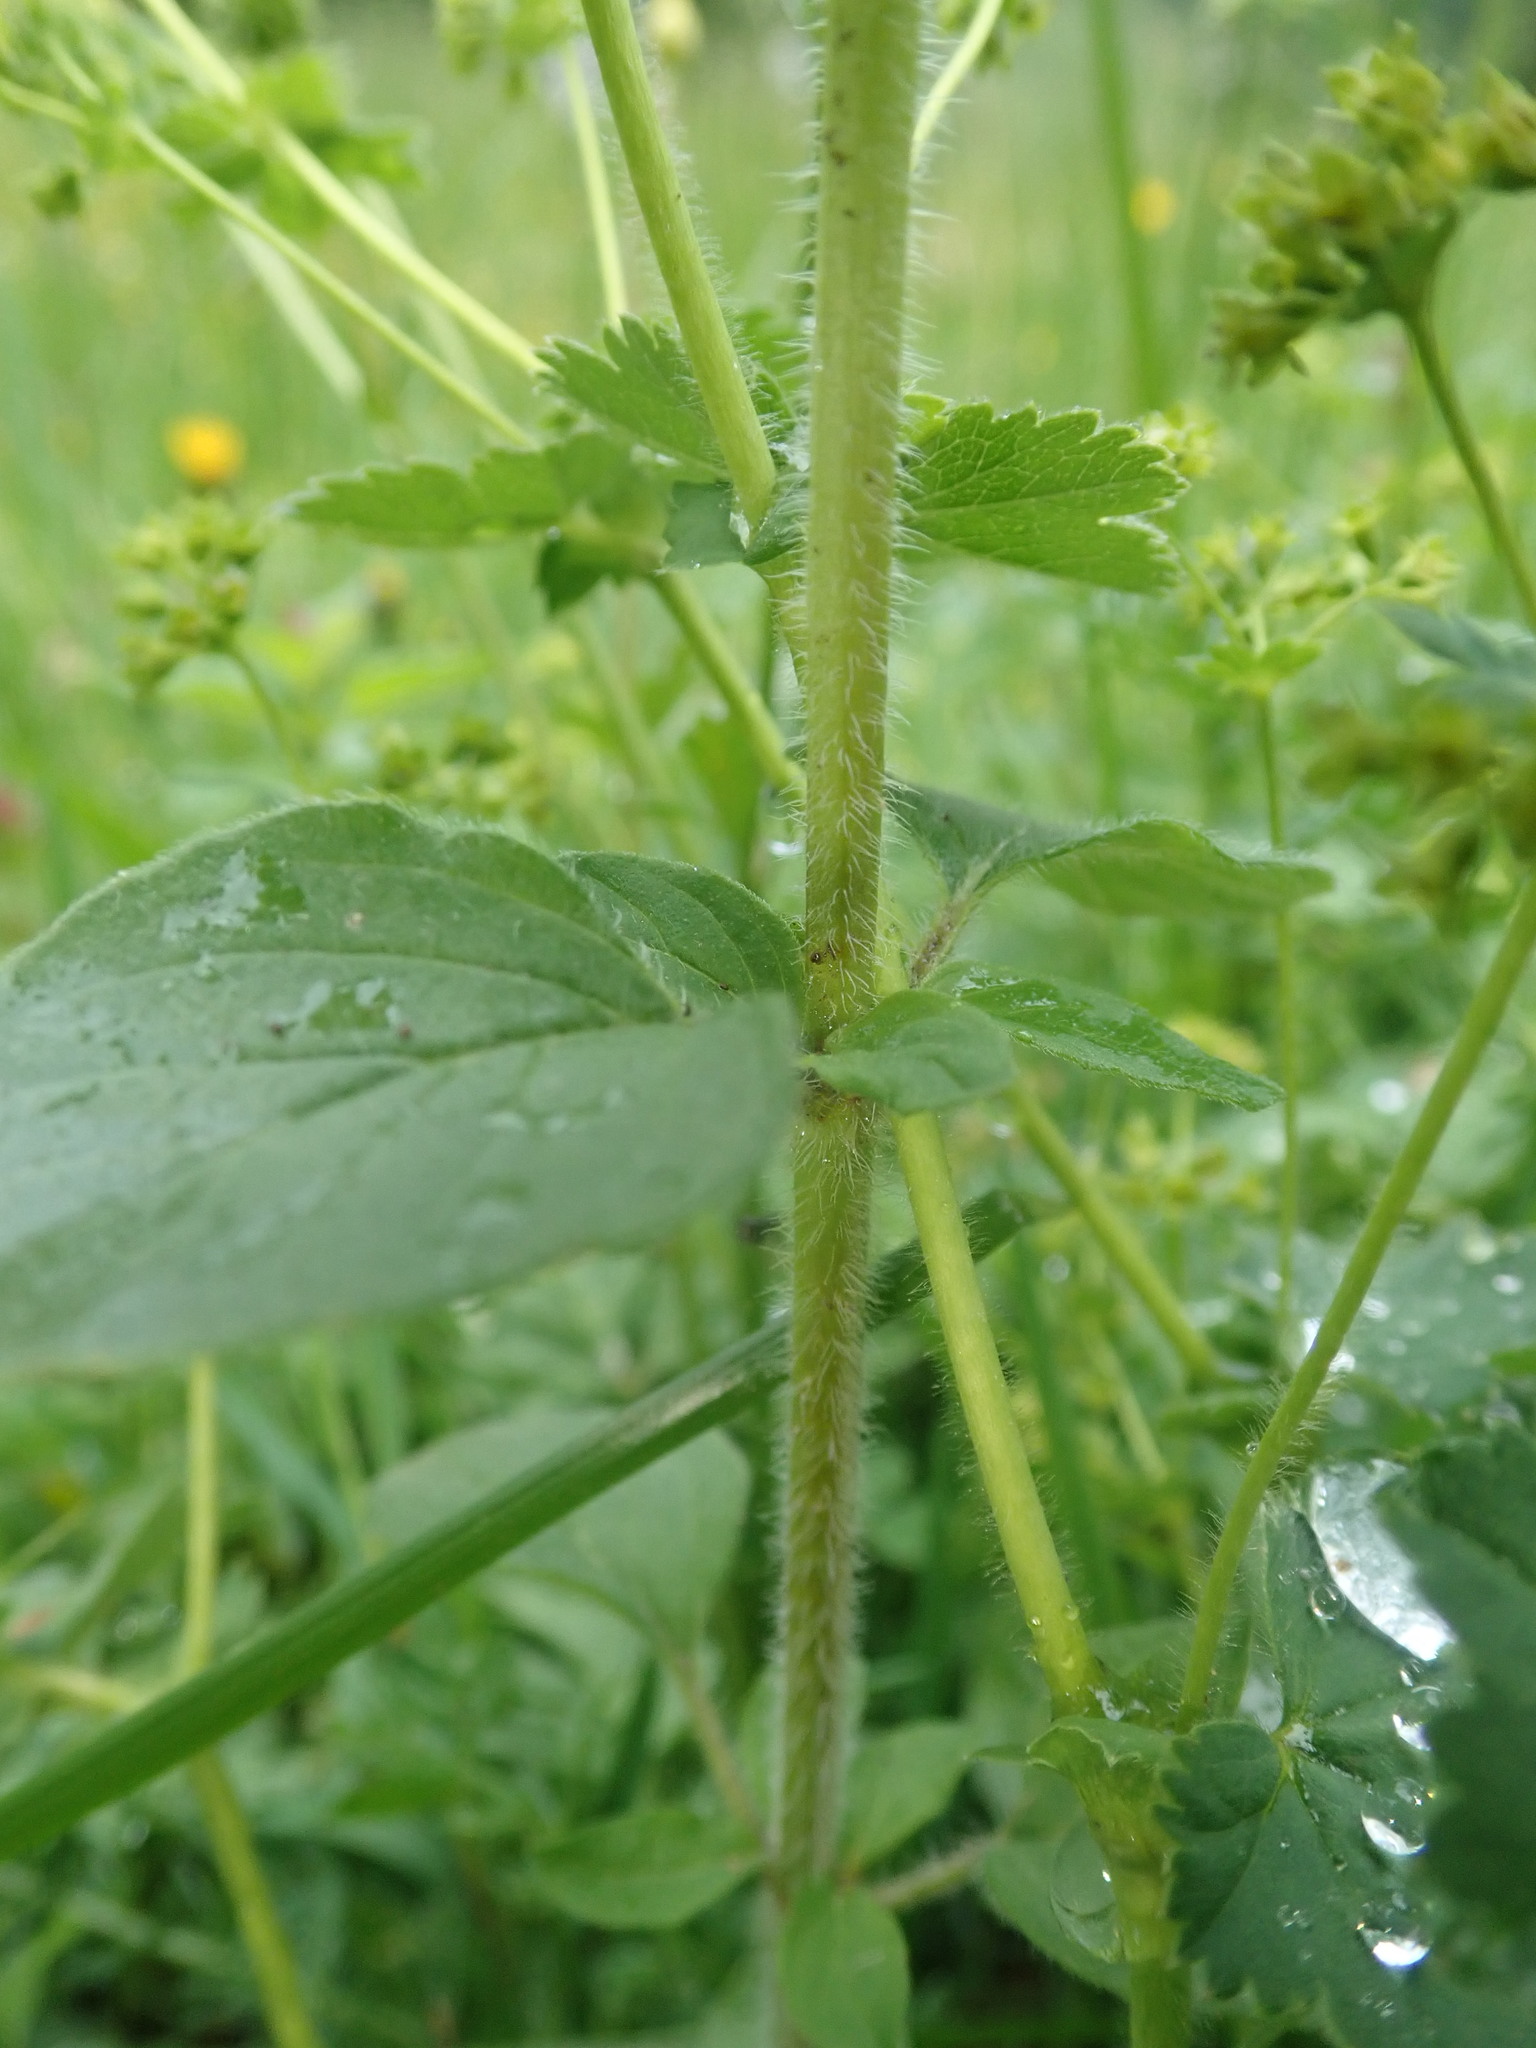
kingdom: Plantae
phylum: Tracheophyta
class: Magnoliopsida
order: Lamiales
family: Lamiaceae
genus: Origanum
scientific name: Origanum vulgare
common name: Wild marjoram
